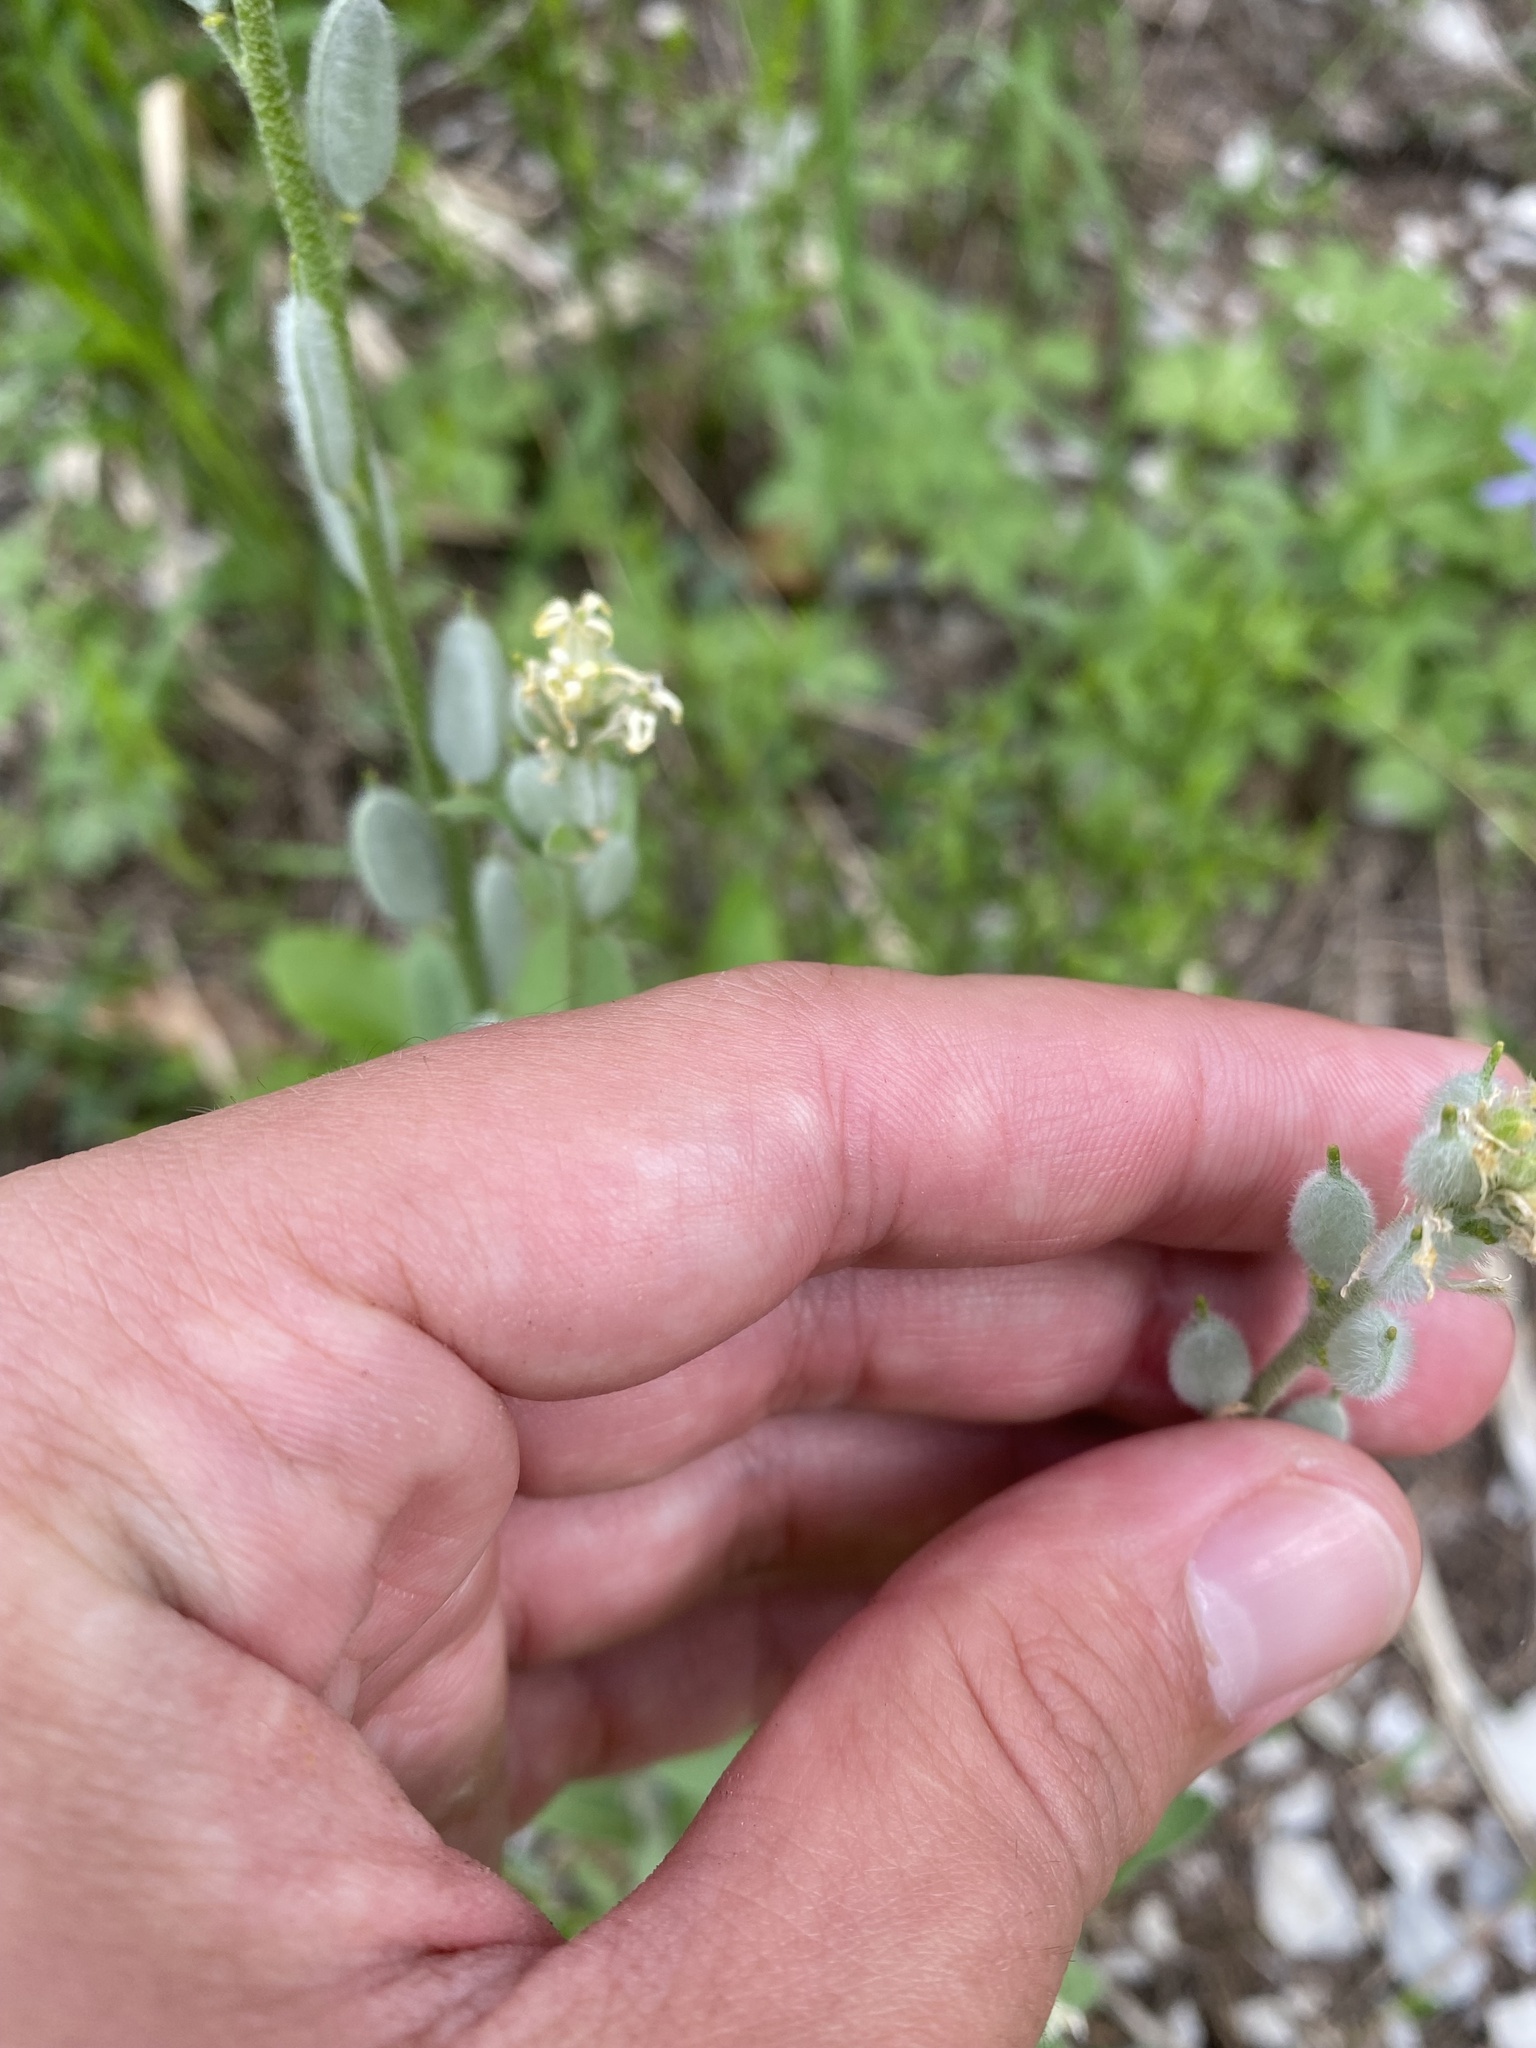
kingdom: Plantae
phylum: Tracheophyta
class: Magnoliopsida
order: Brassicales
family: Brassicaceae
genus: Fibigia
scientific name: Fibigia clypeata
